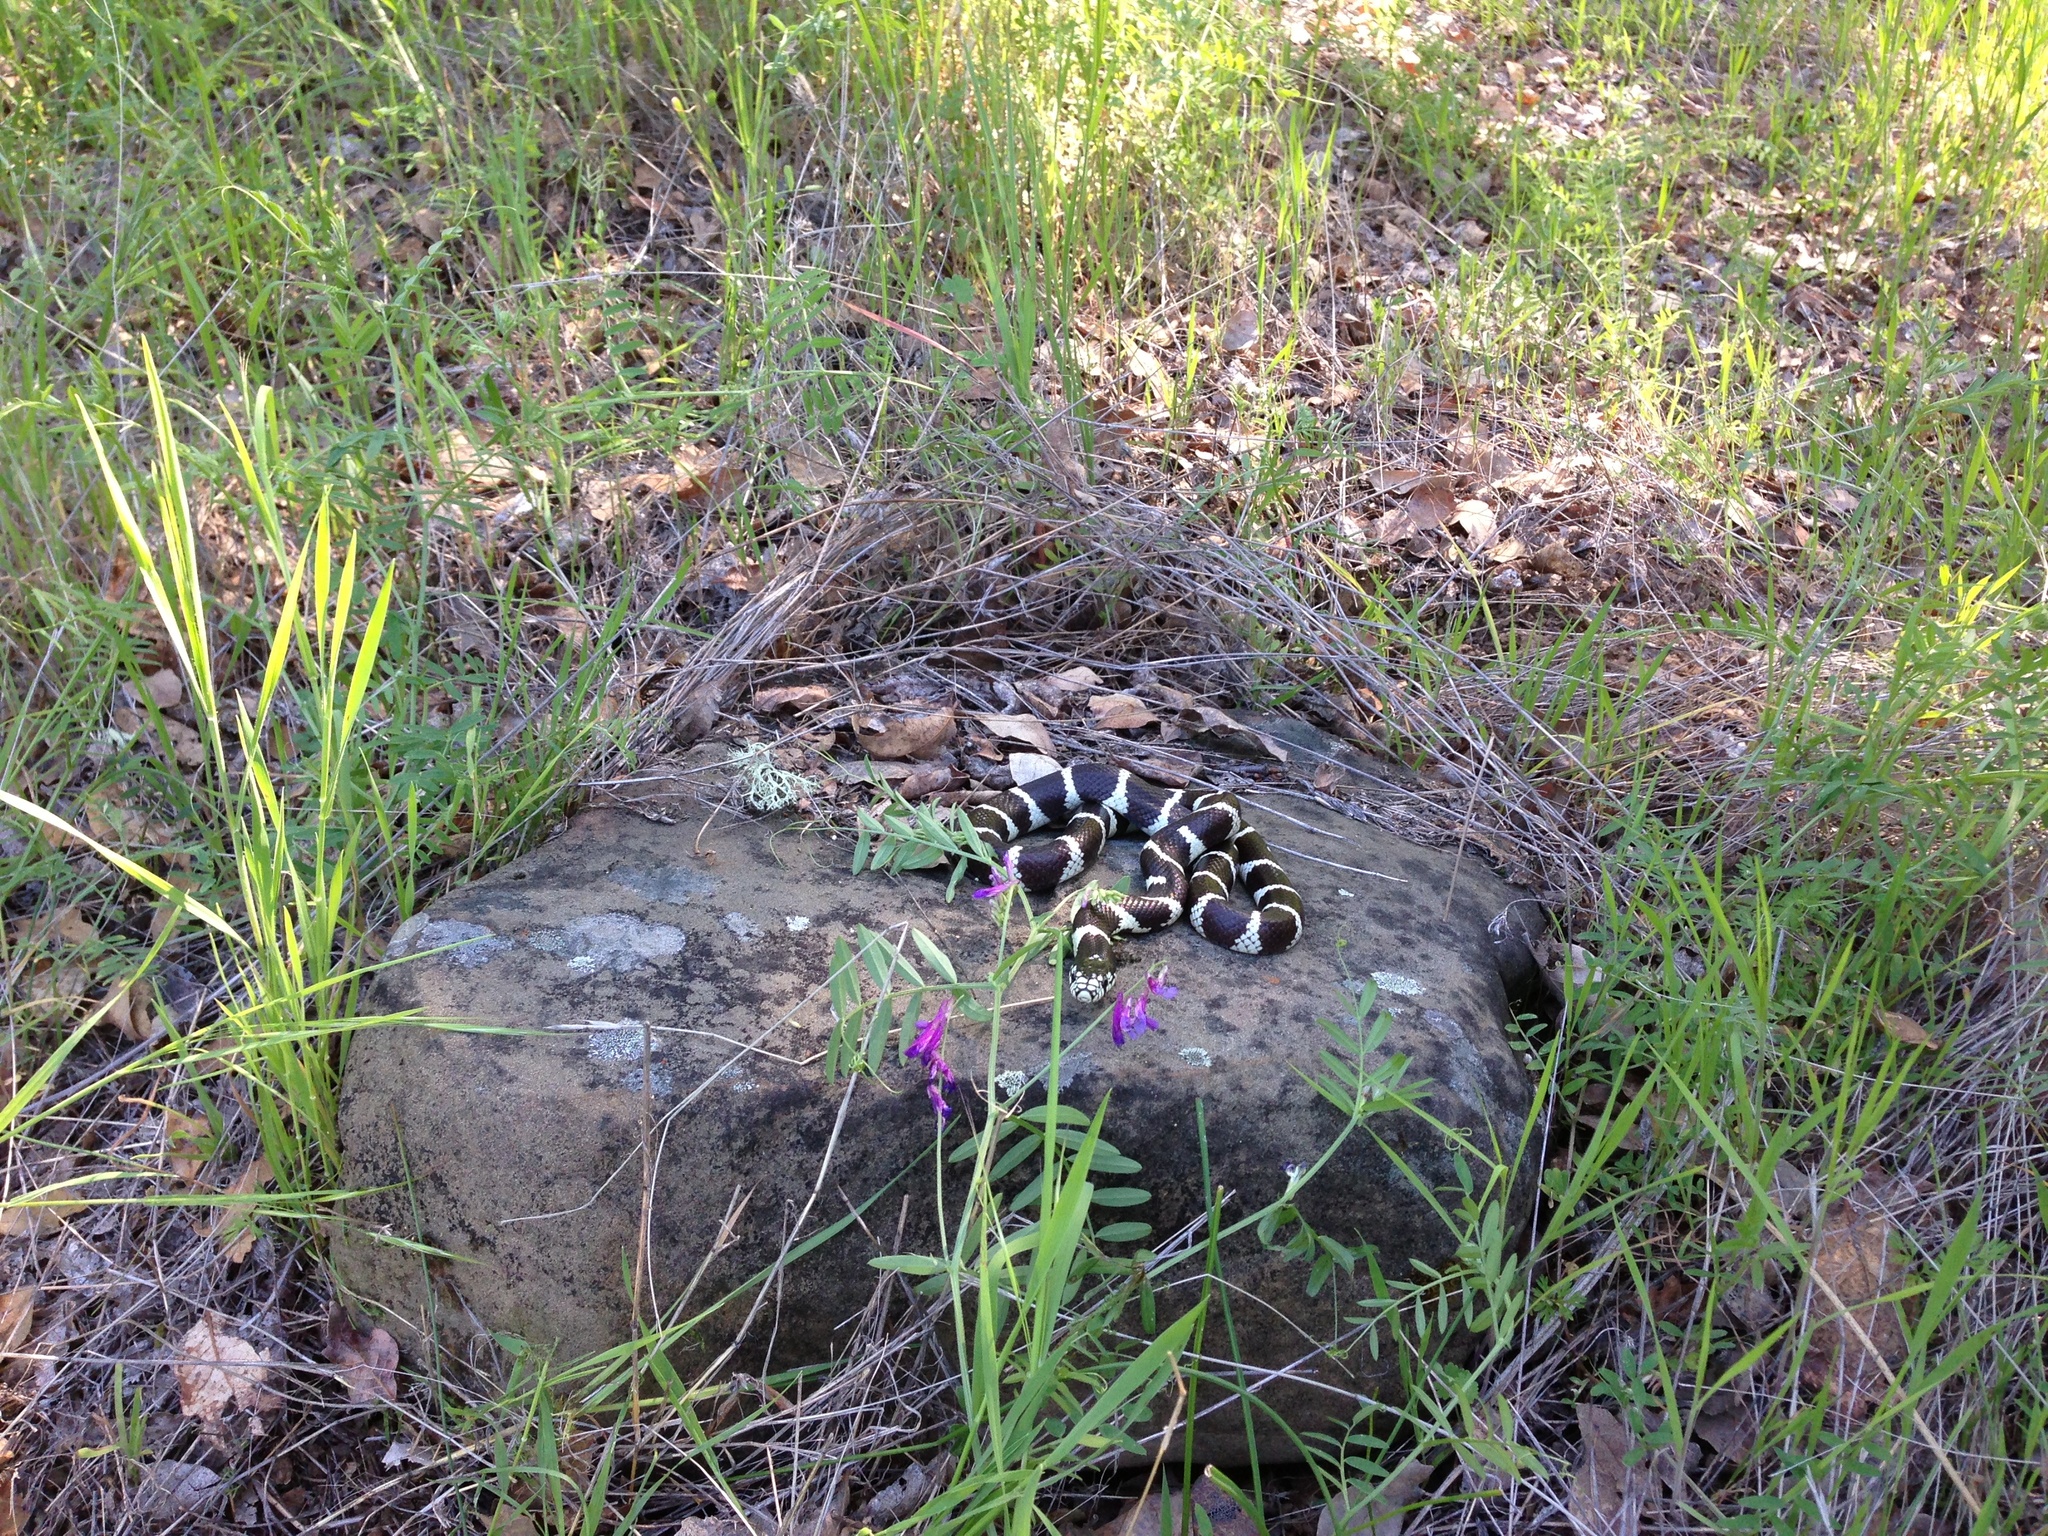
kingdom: Animalia
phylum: Chordata
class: Squamata
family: Colubridae
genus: Lampropeltis
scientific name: Lampropeltis californiae
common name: California kingsnake
